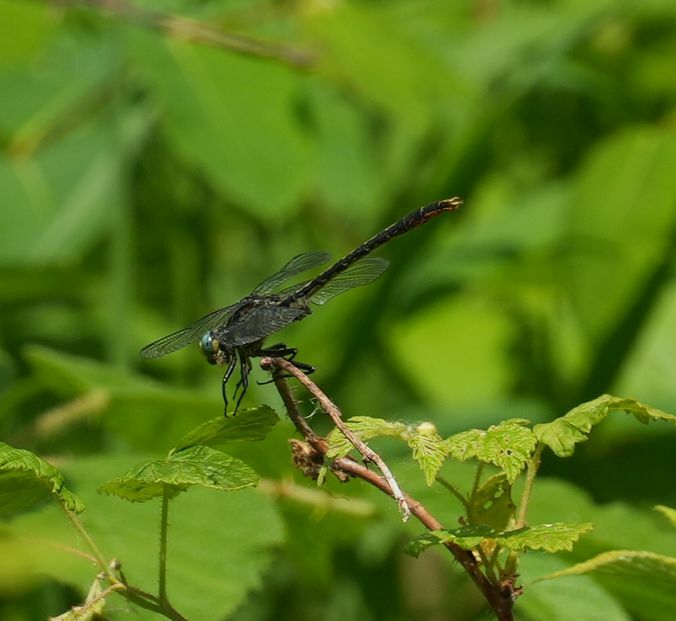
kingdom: Animalia
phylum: Arthropoda
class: Insecta
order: Odonata
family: Gomphidae
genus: Arigomphus
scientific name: Arigomphus furcifer
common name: Lilypad clubtail
